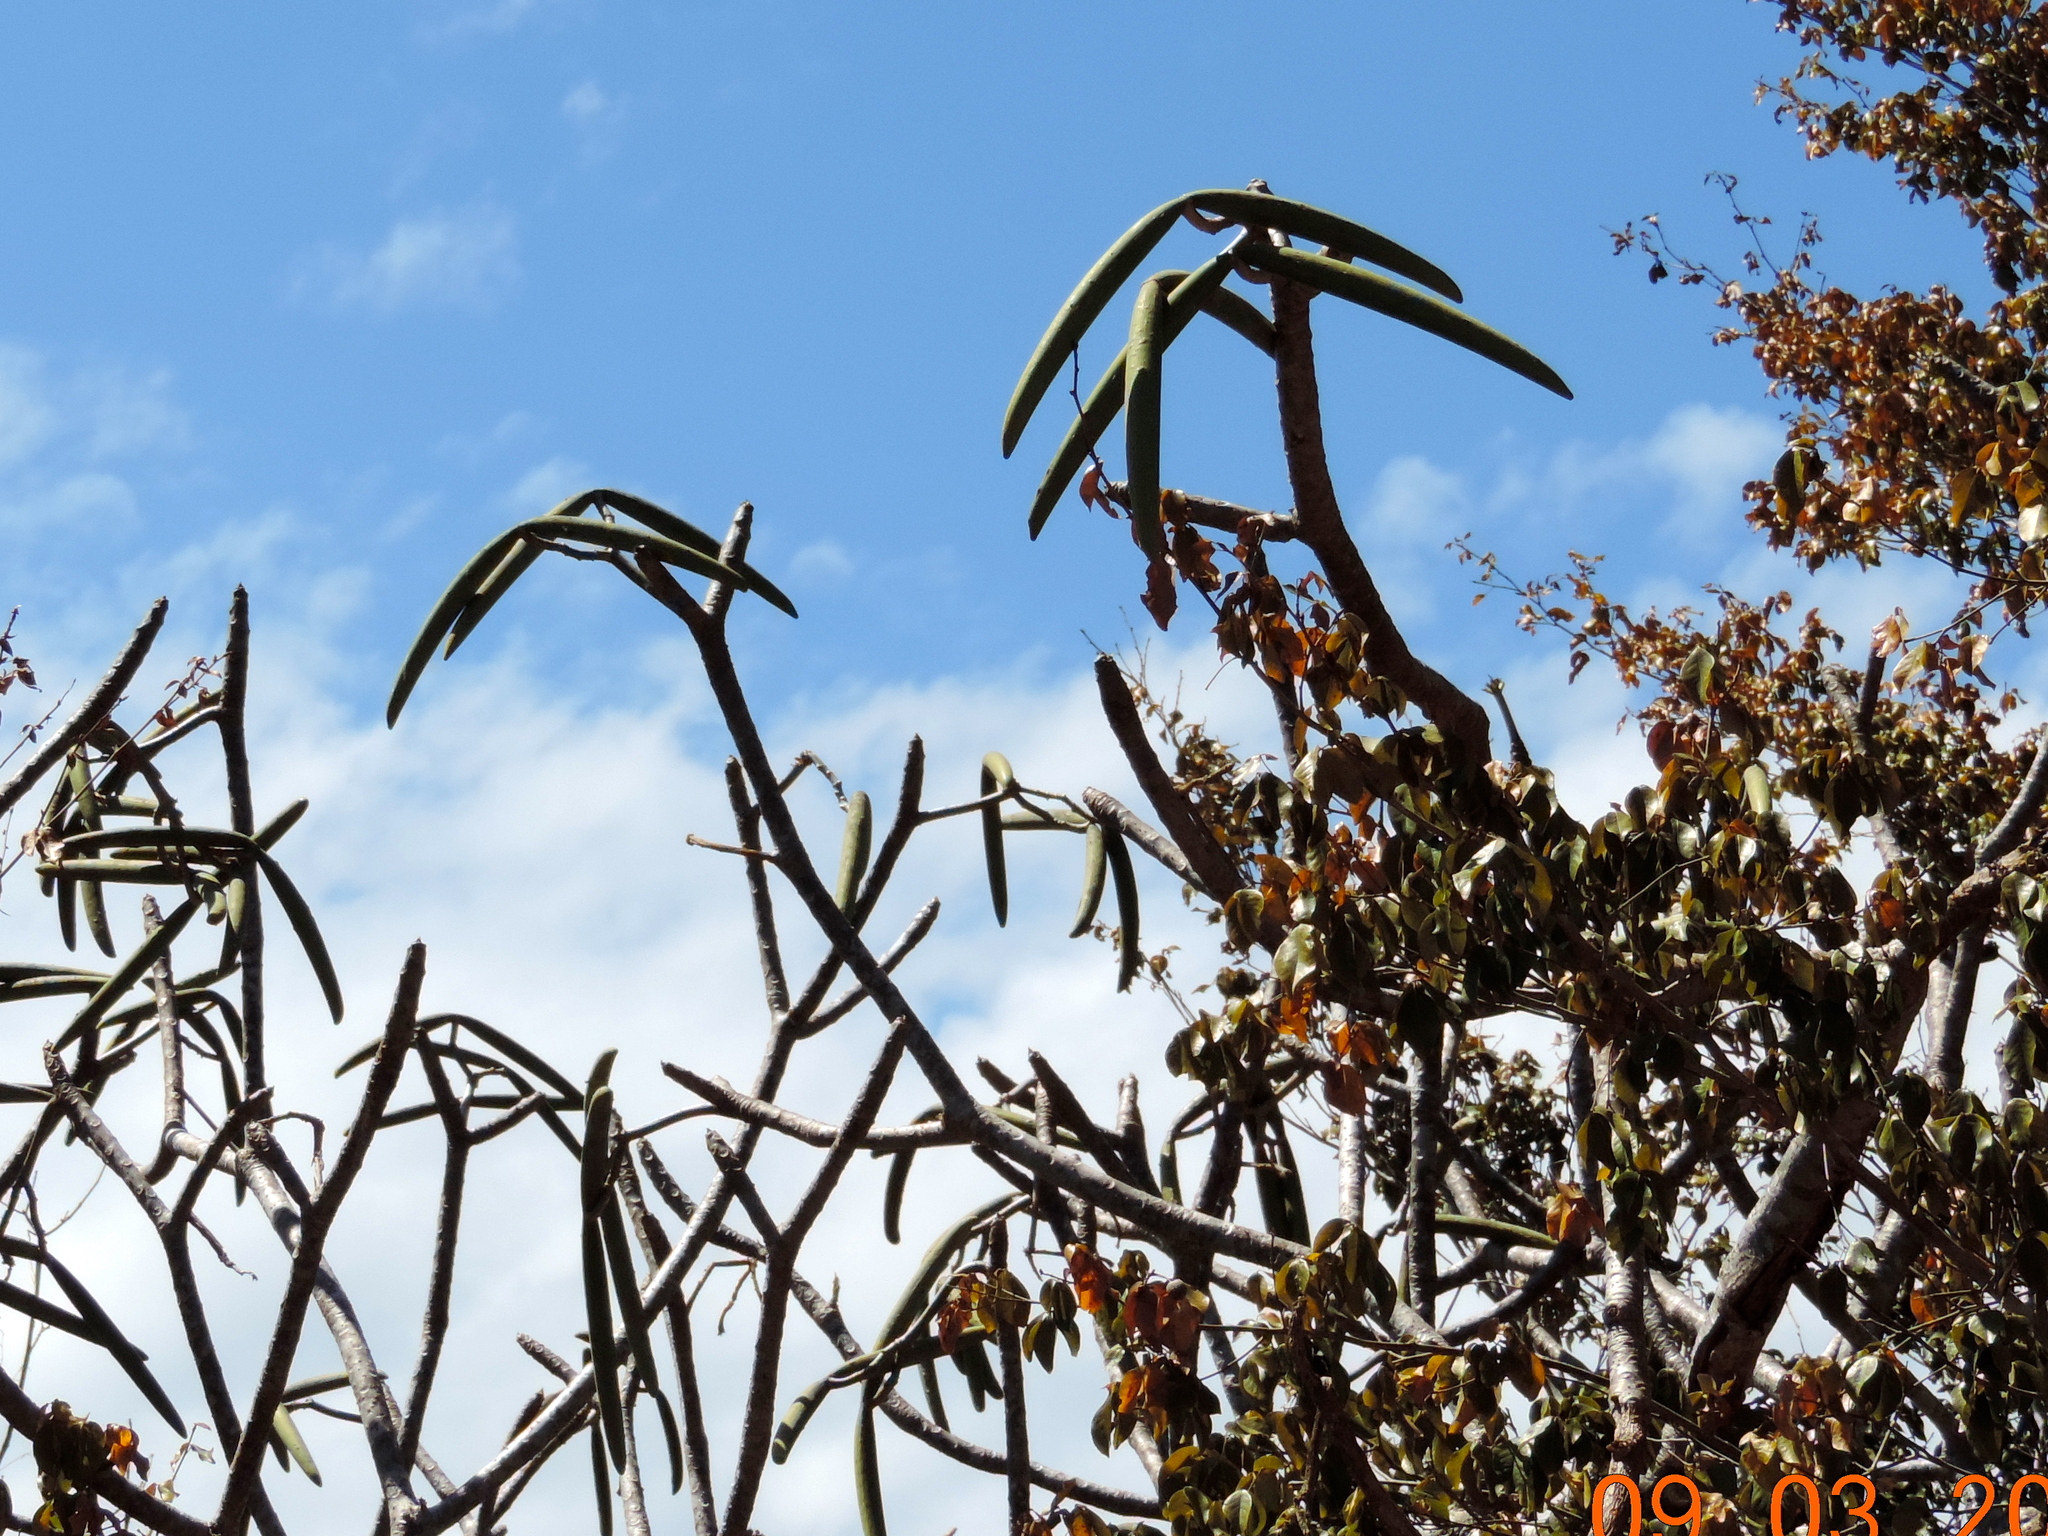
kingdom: Plantae
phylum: Tracheophyta
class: Magnoliopsida
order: Gentianales
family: Apocynaceae
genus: Plumeria
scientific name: Plumeria rubra
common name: Pagoda-tree
